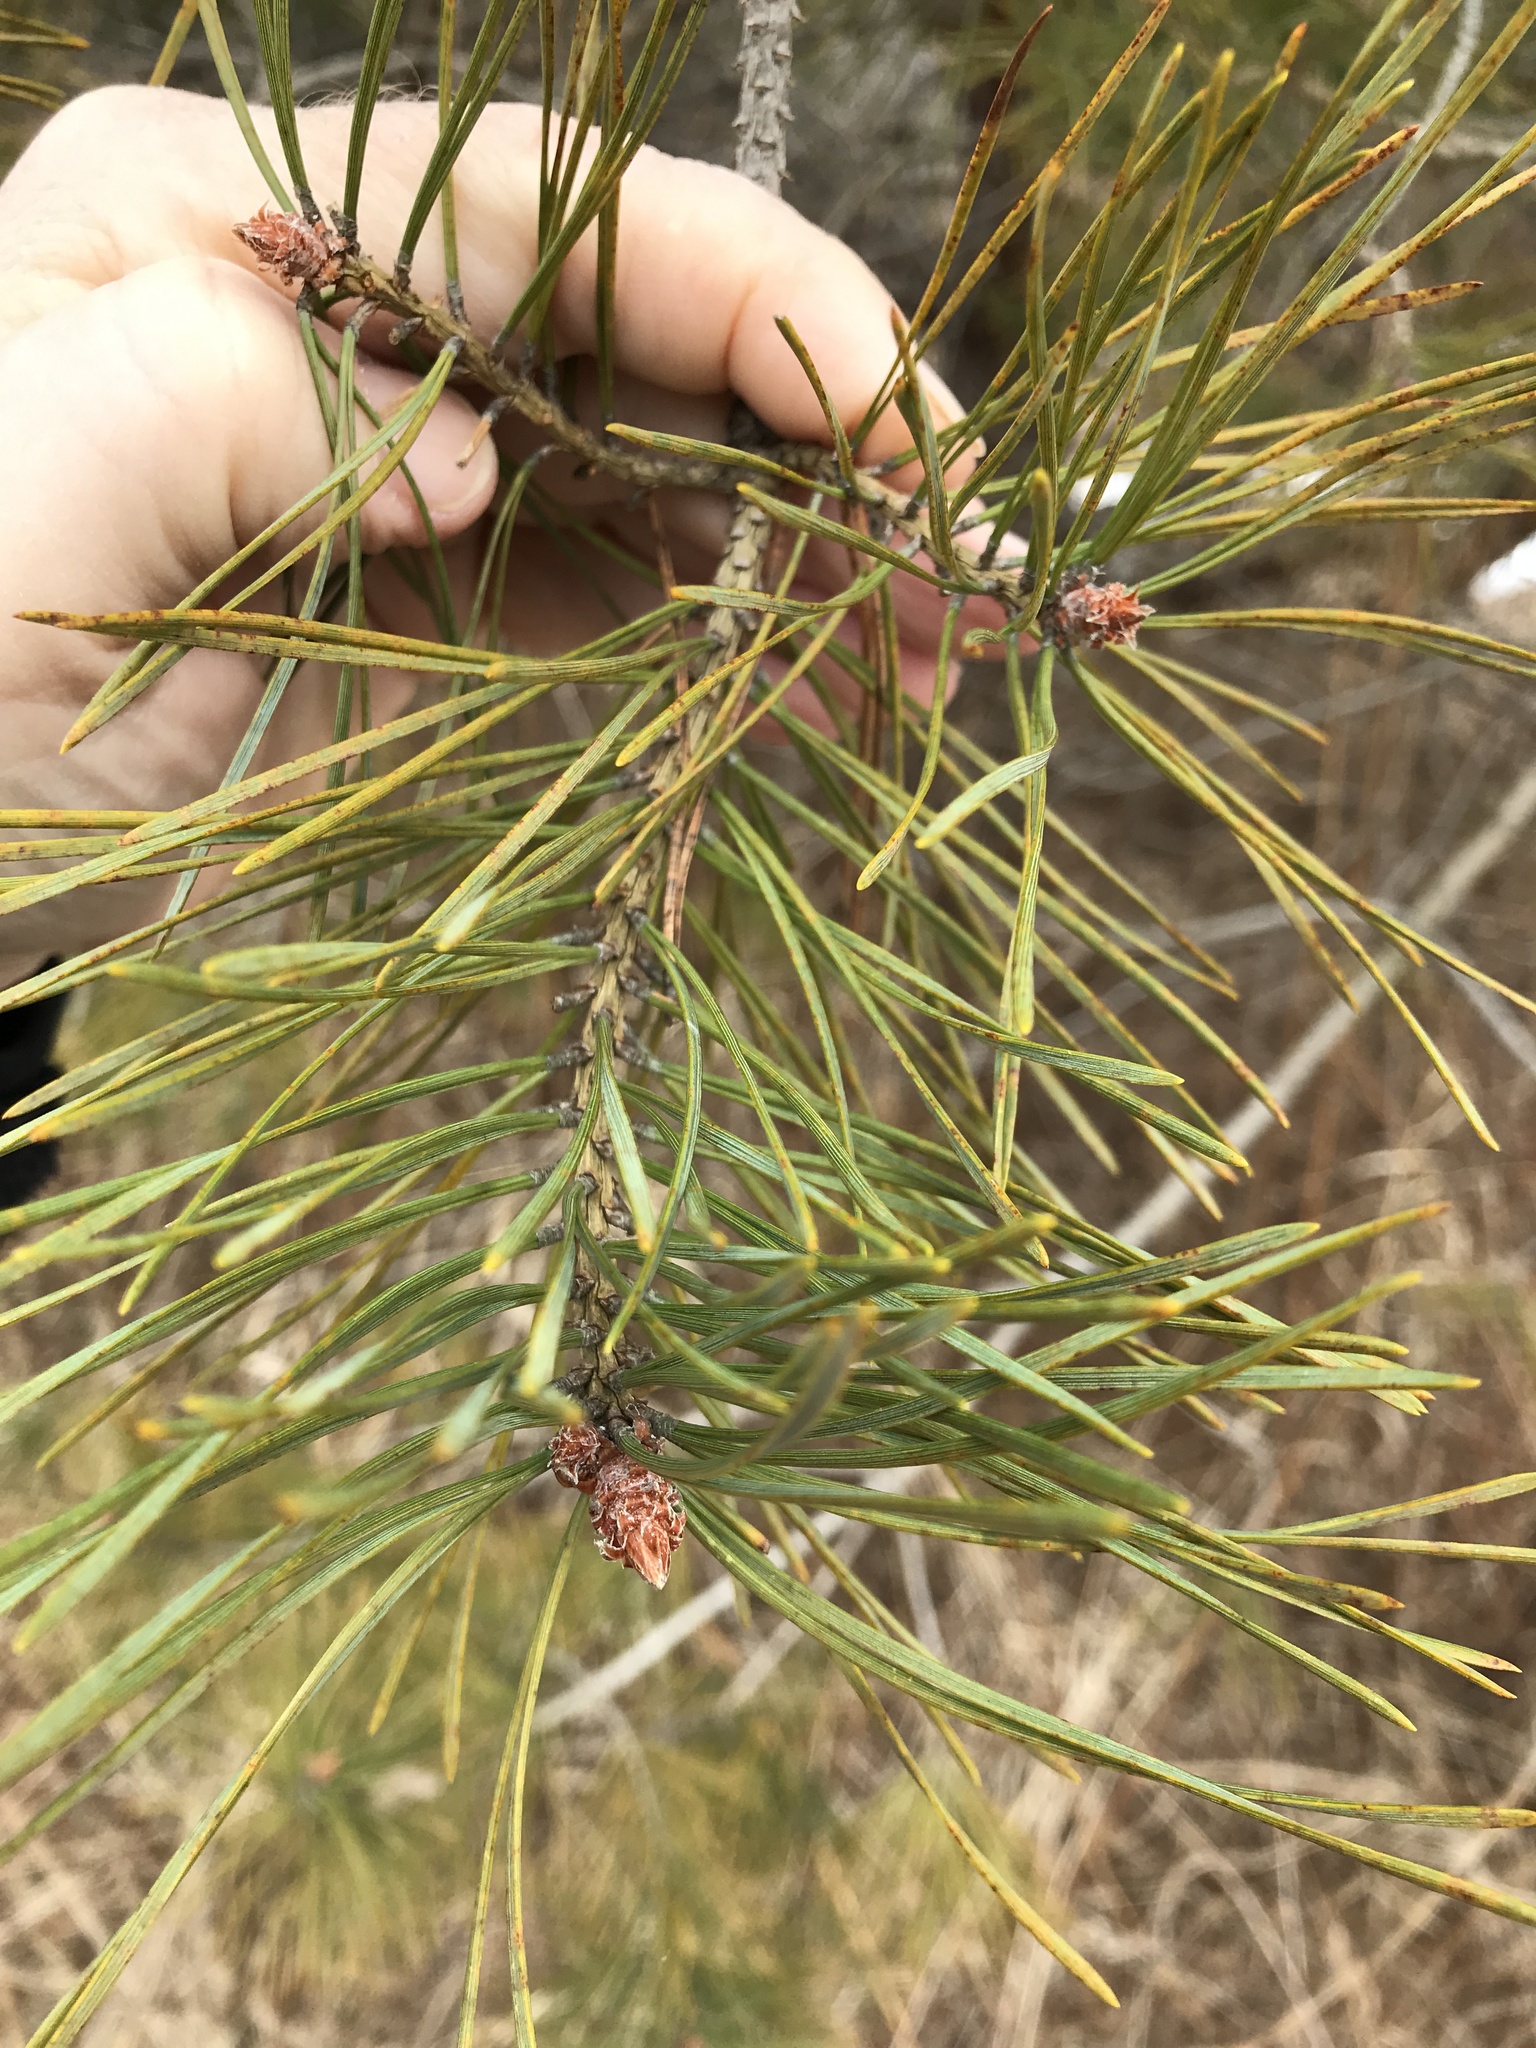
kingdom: Plantae
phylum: Tracheophyta
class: Pinopsida
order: Pinales
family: Pinaceae
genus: Pinus
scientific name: Pinus sylvestris
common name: Scots pine
